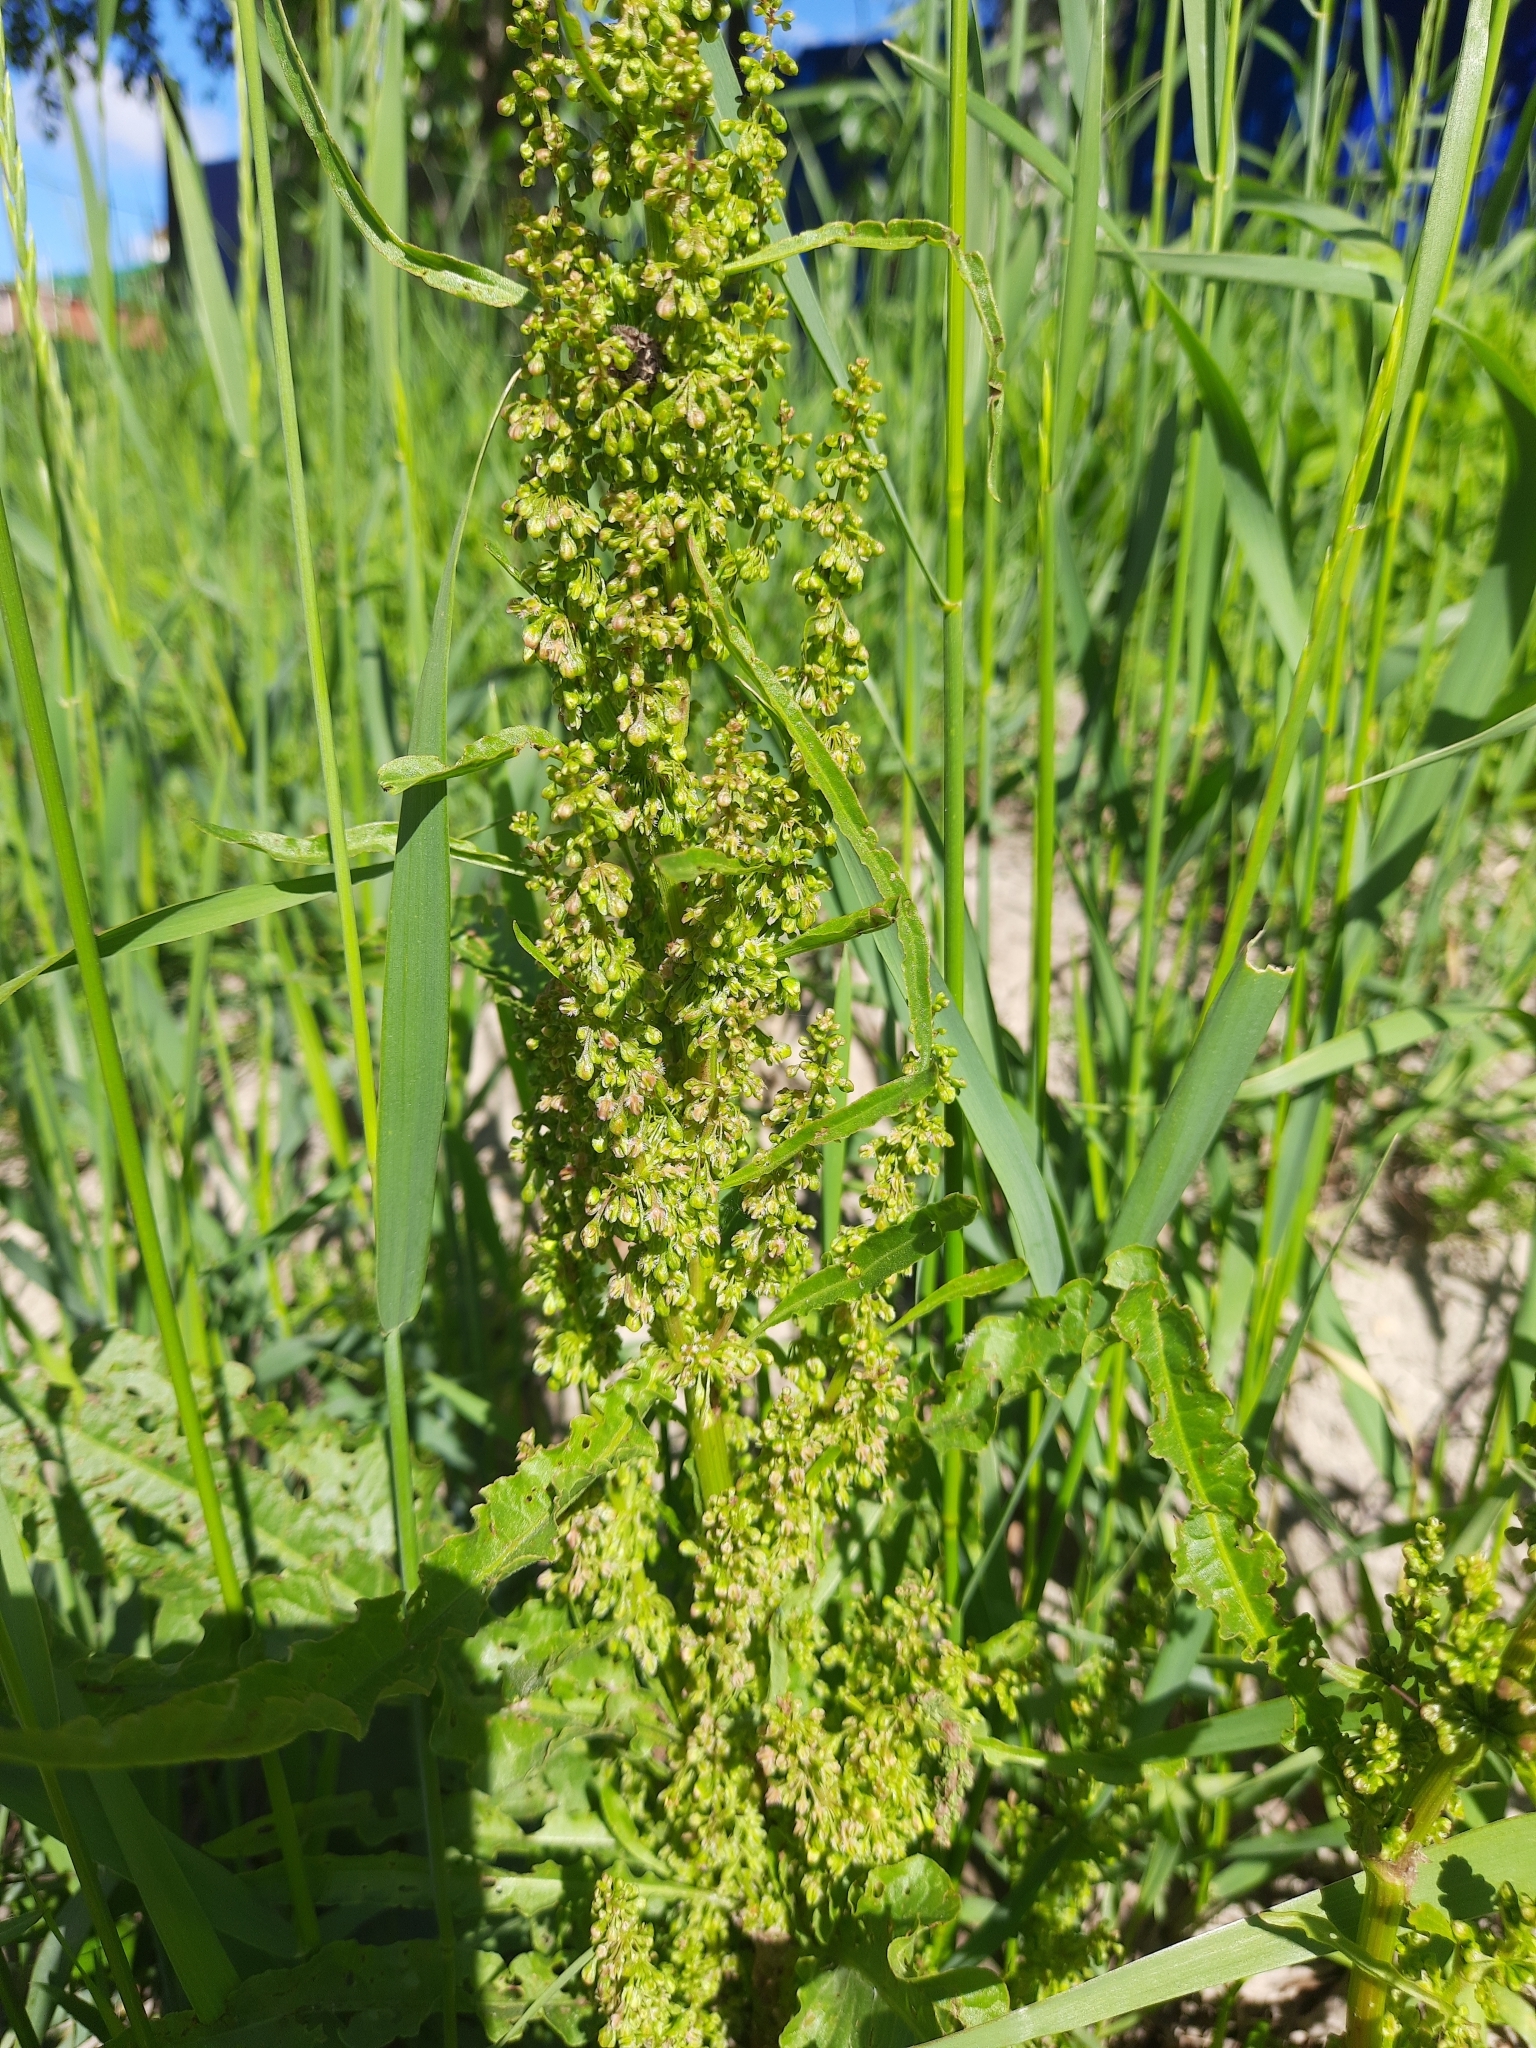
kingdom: Plantae
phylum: Tracheophyta
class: Magnoliopsida
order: Caryophyllales
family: Polygonaceae
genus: Rumex
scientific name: Rumex pseudonatronatus
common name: Field dock
